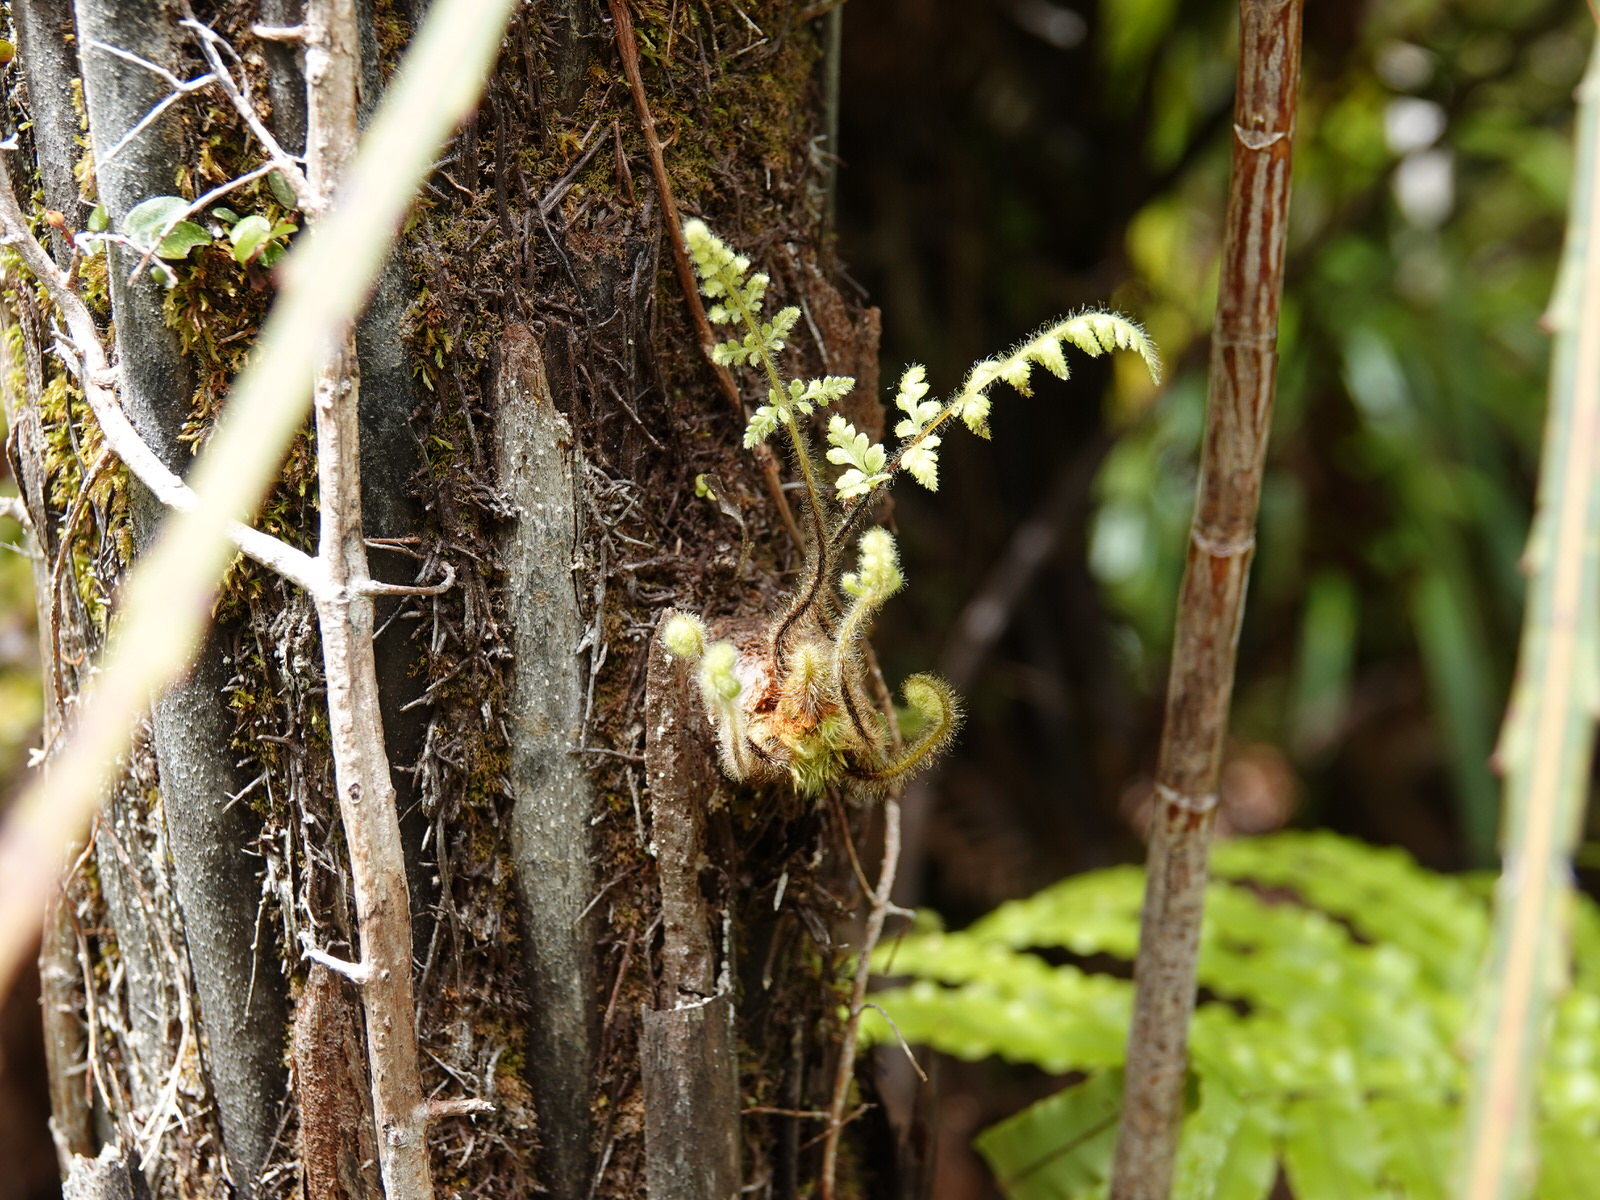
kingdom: Plantae
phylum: Tracheophyta
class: Polypodiopsida
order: Cyatheales
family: Dicksoniaceae
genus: Dicksonia
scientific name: Dicksonia squarrosa
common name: Hard treefern
